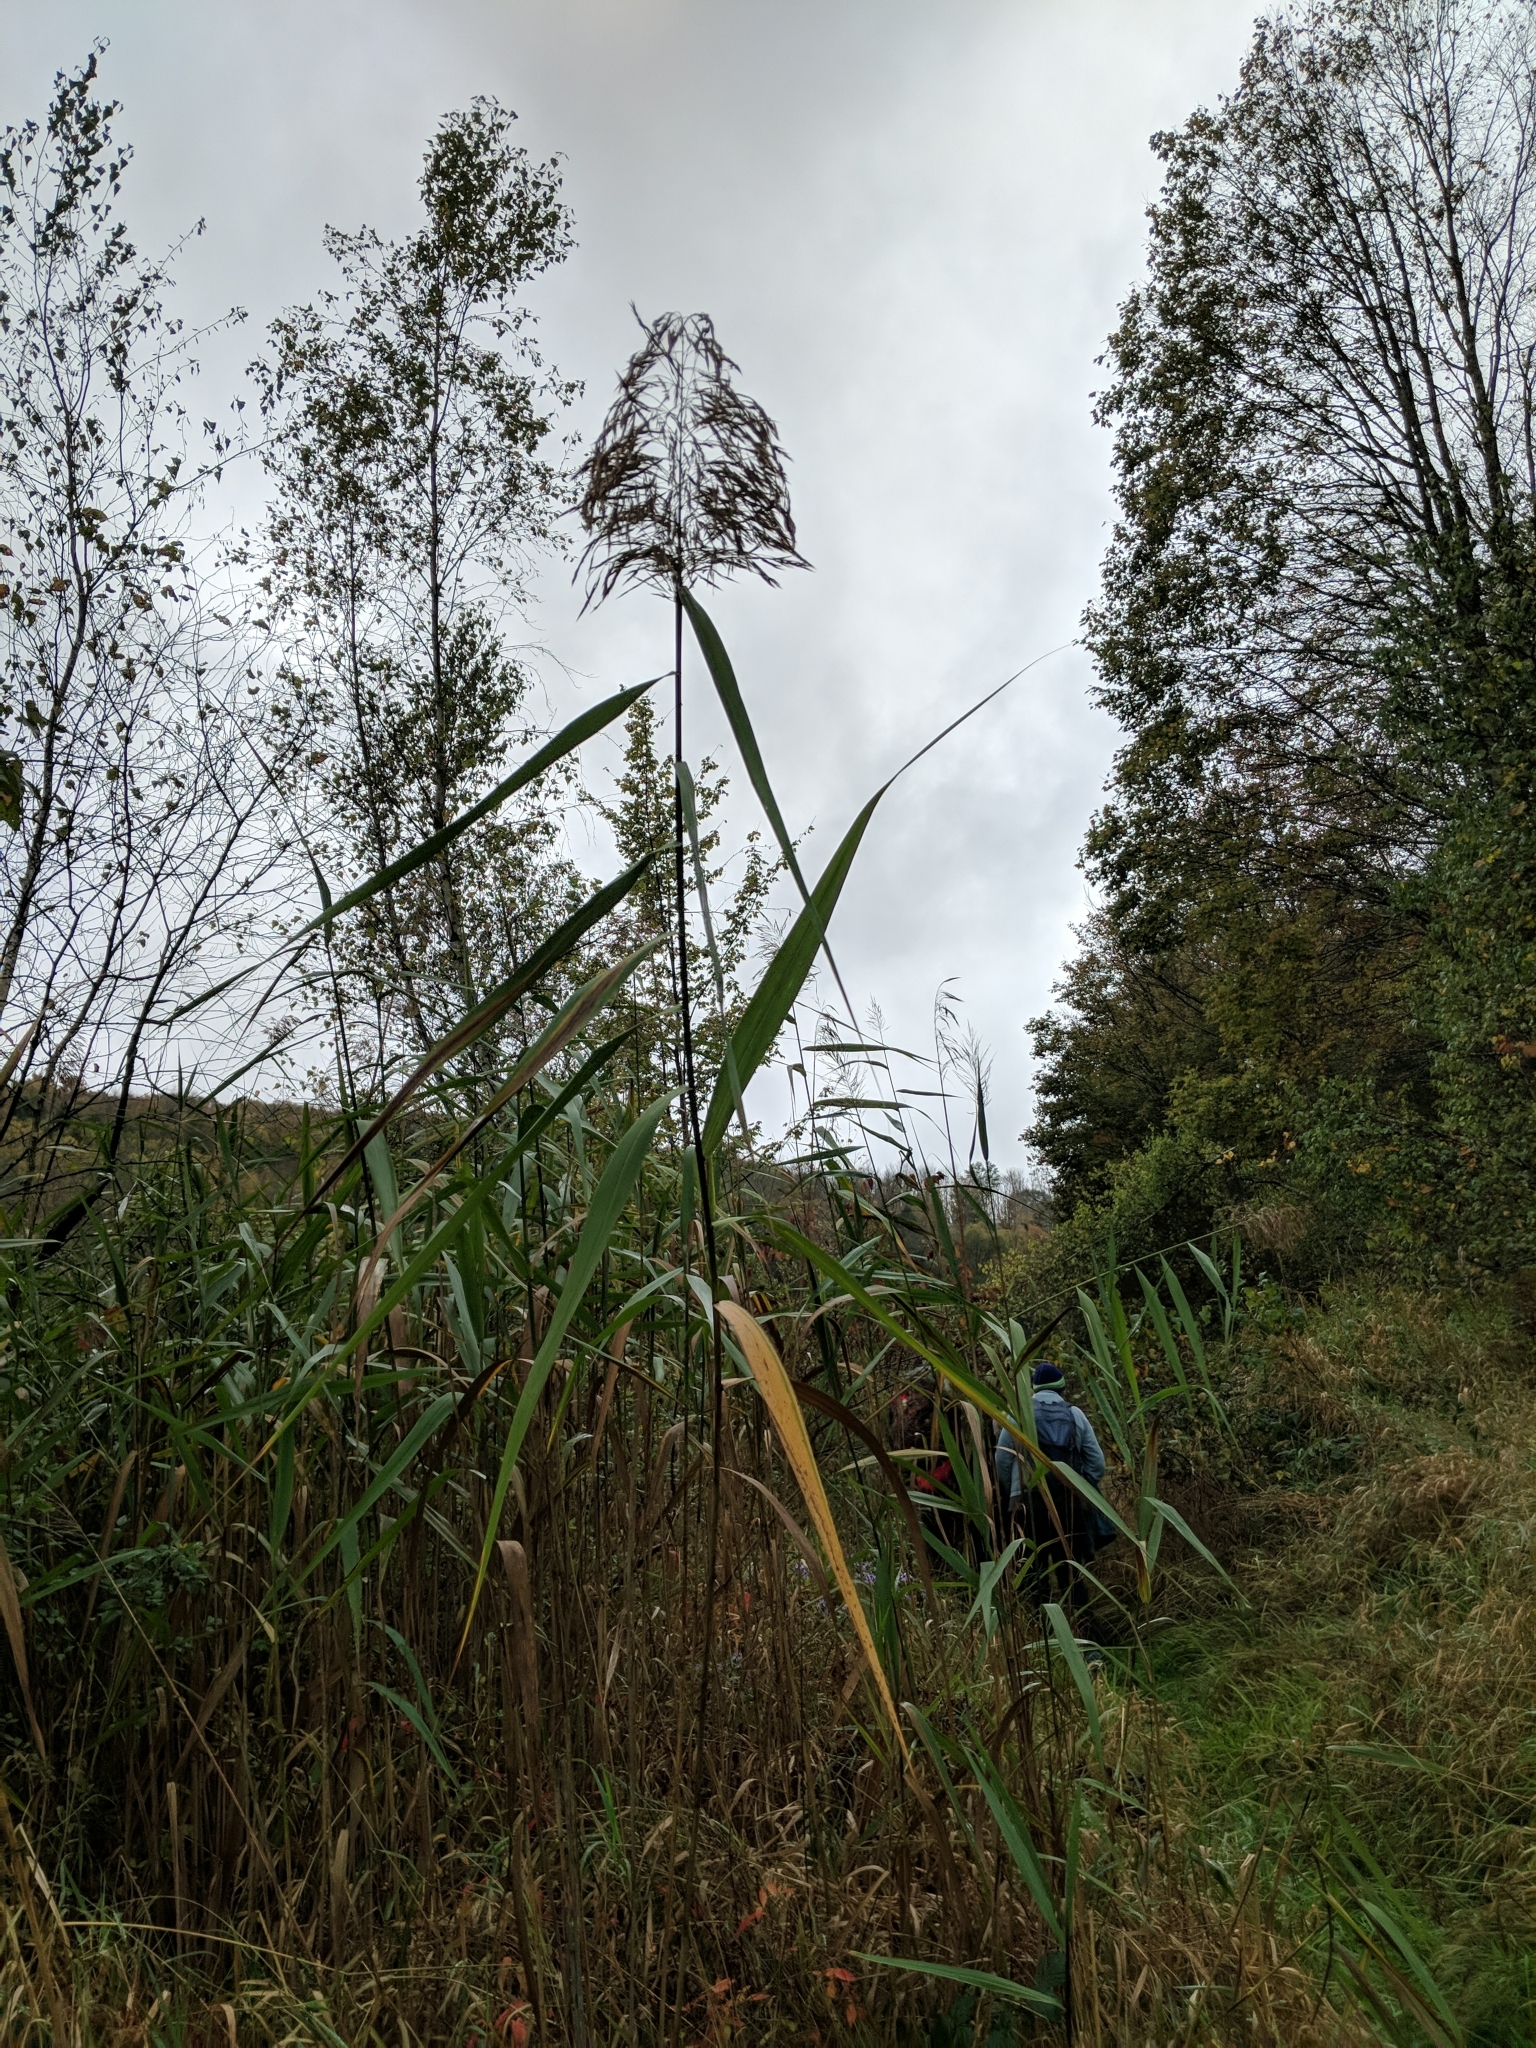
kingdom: Plantae
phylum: Tracheophyta
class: Liliopsida
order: Poales
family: Poaceae
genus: Phragmites
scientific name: Phragmites australis
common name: Common reed
